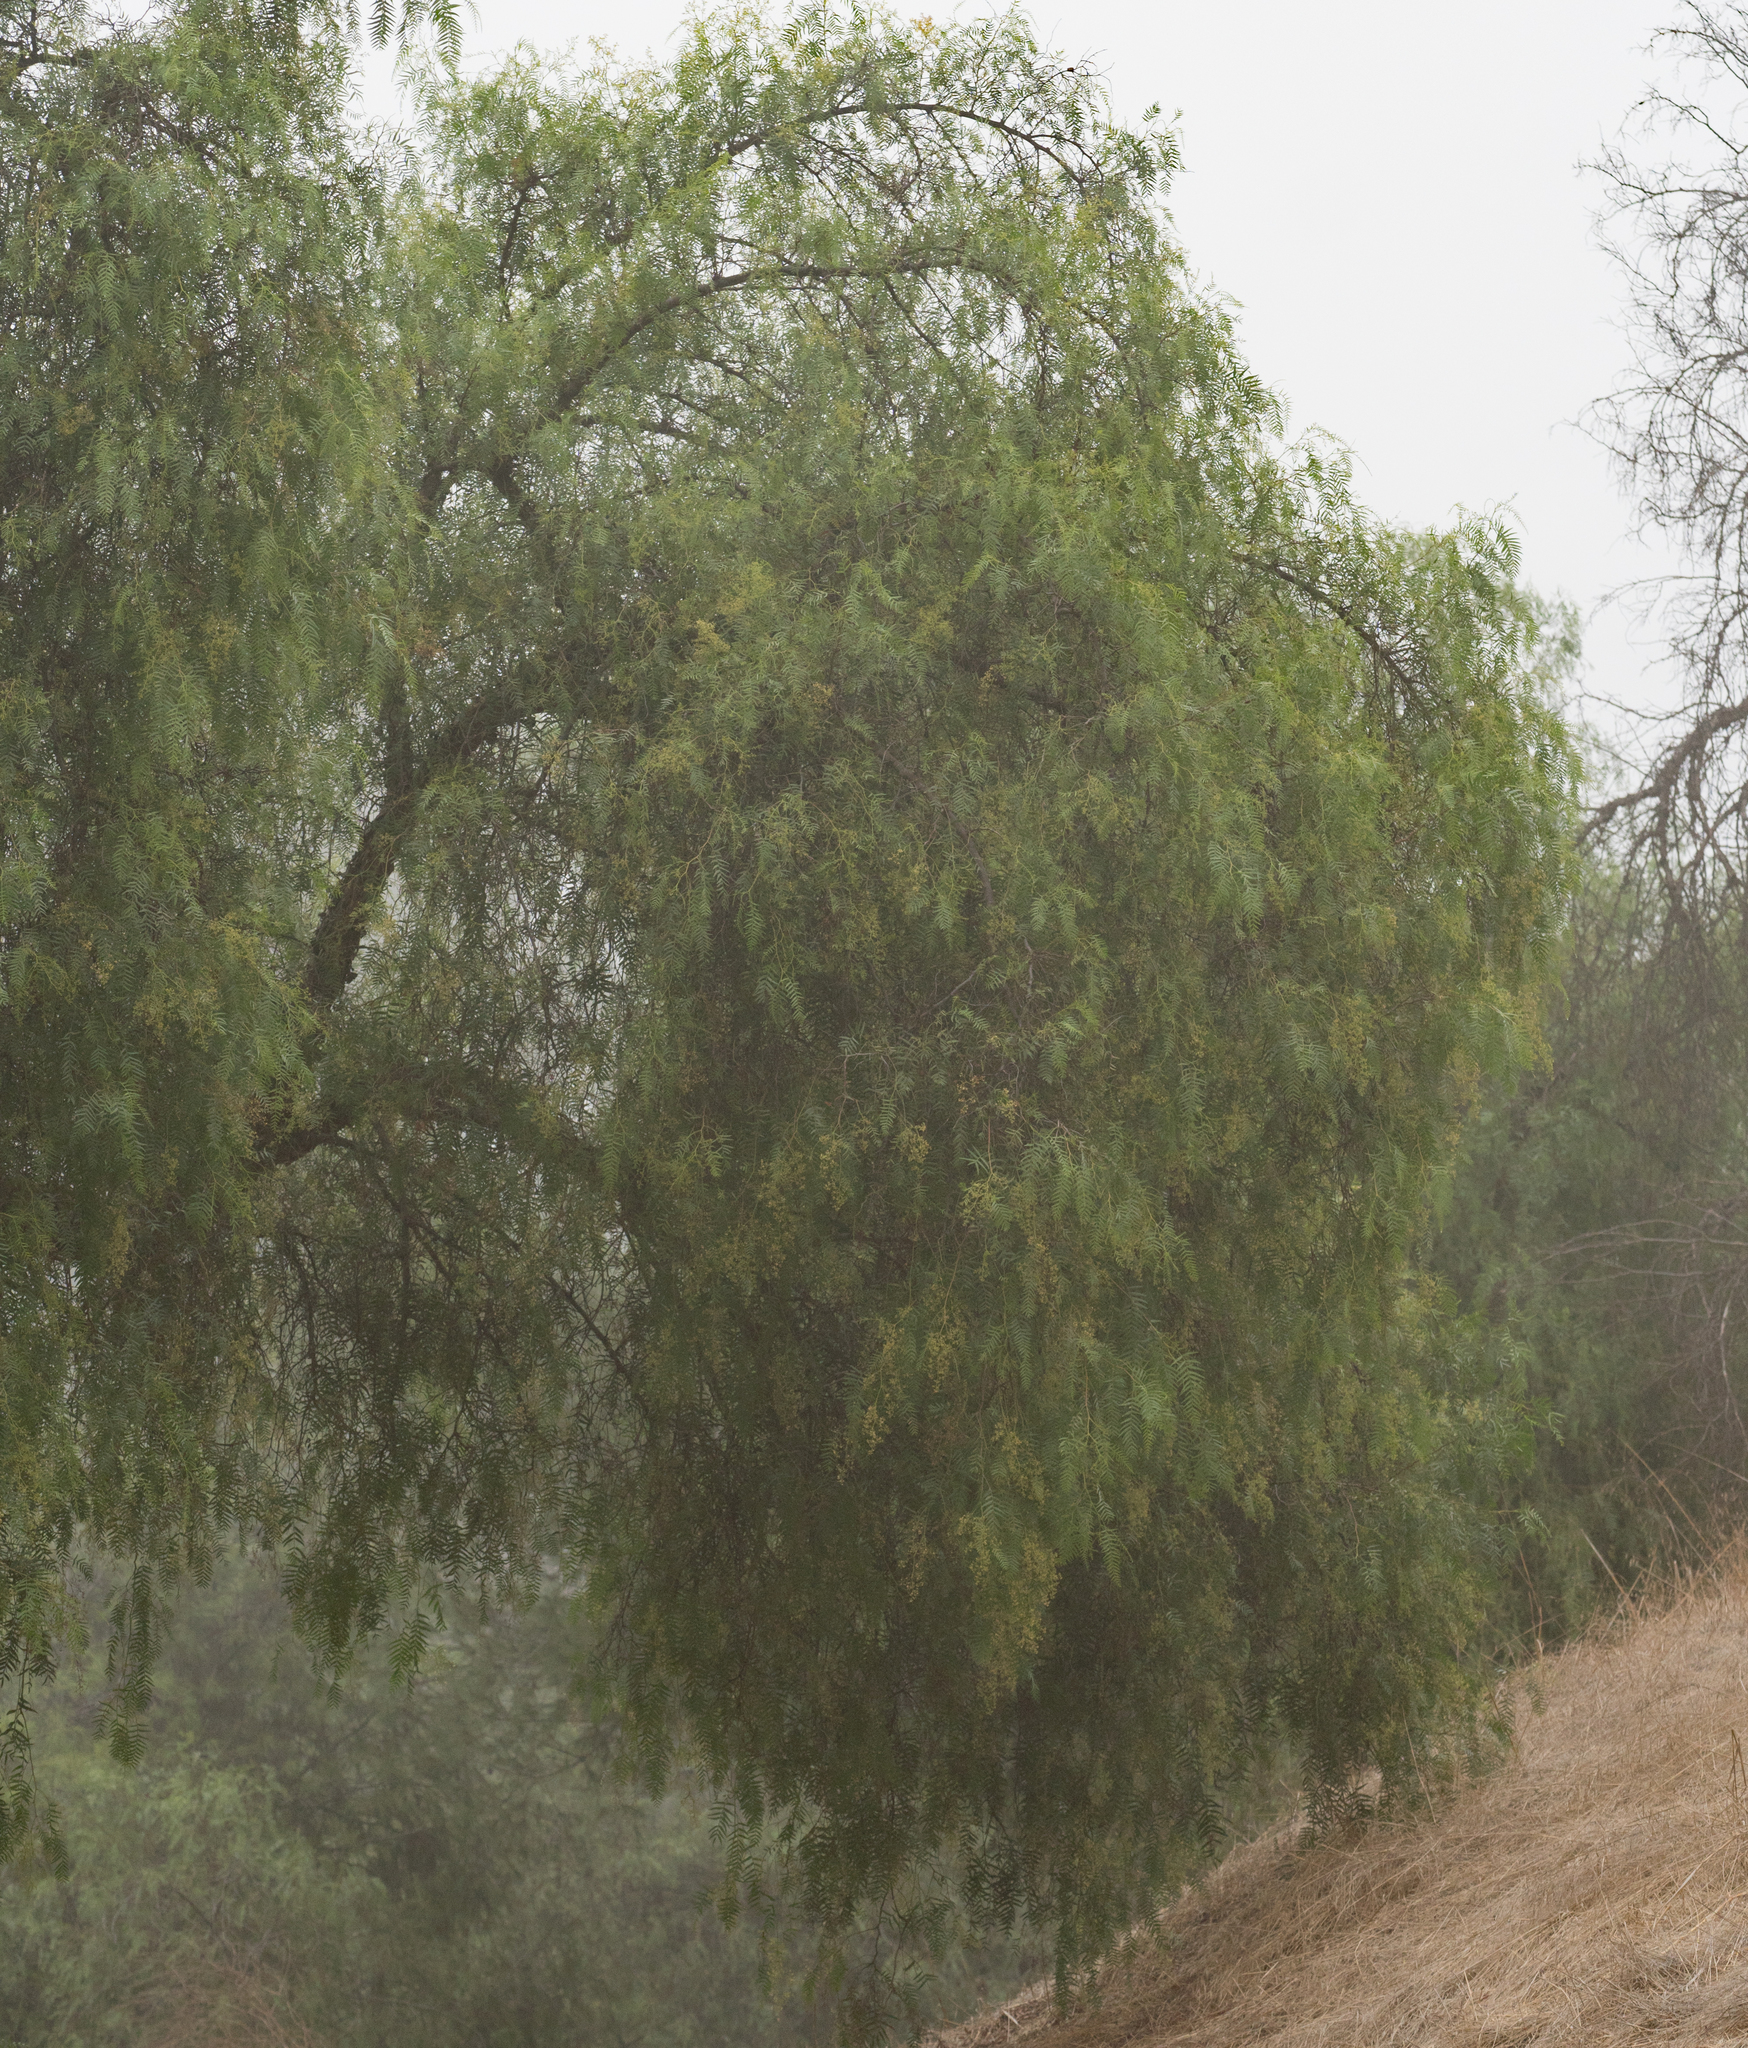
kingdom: Plantae
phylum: Tracheophyta
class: Magnoliopsida
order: Sapindales
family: Anacardiaceae
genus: Schinus
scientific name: Schinus molle
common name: Peruvian peppertree
